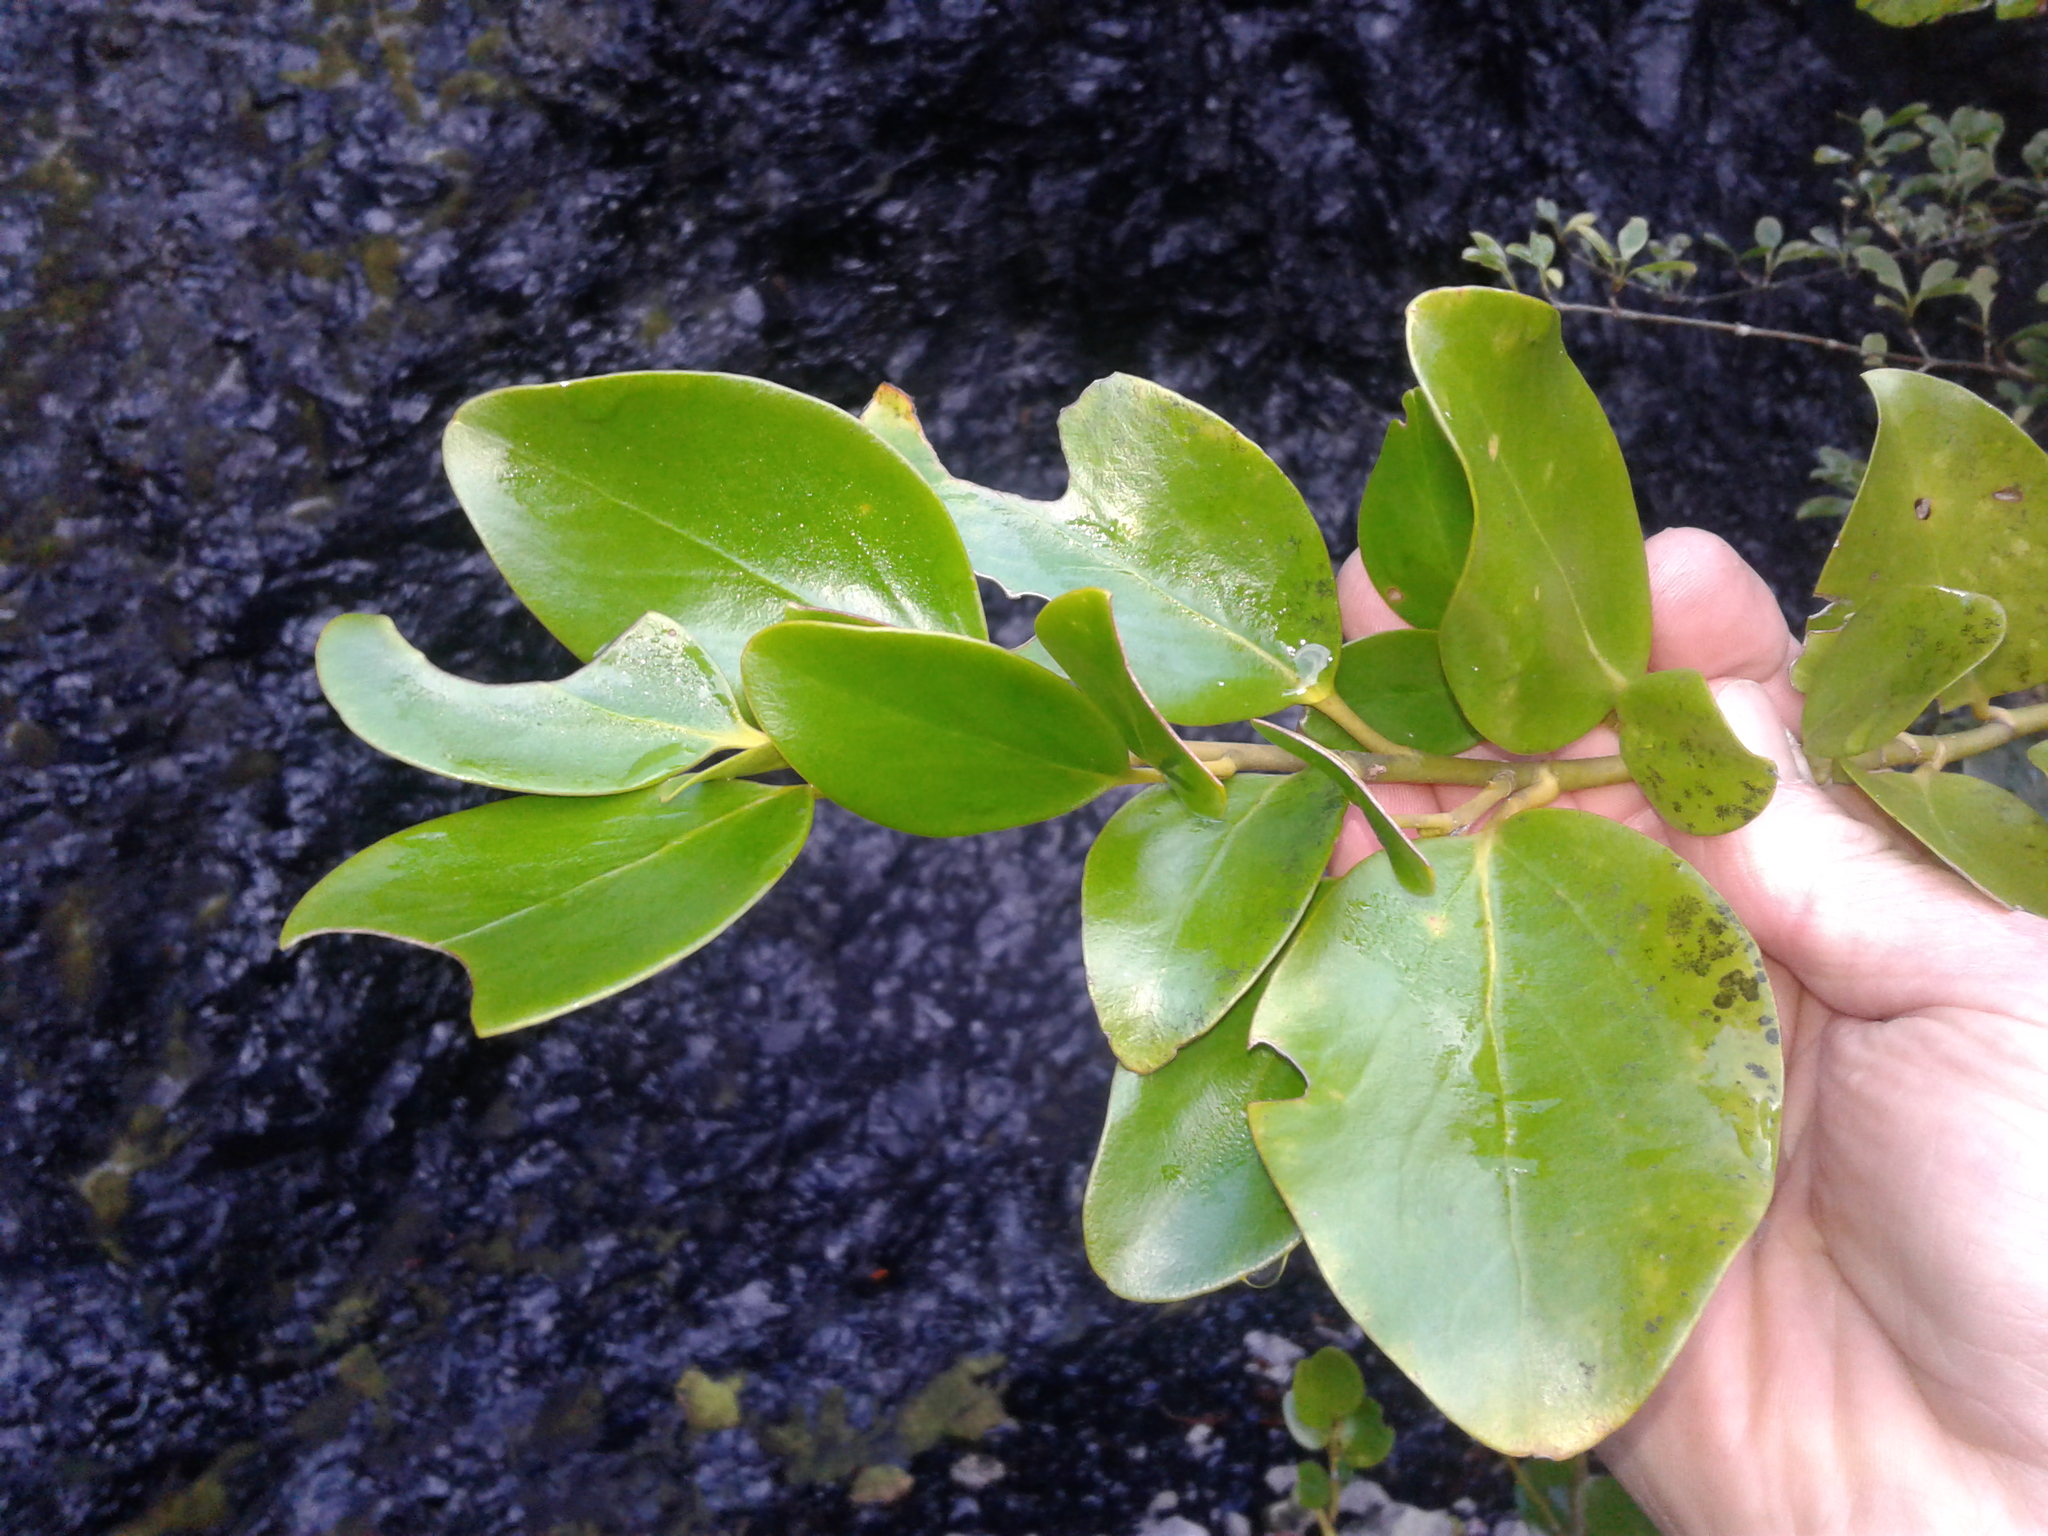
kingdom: Plantae
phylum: Tracheophyta
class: Magnoliopsida
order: Apiales
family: Griseliniaceae
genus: Griselinia
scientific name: Griselinia littoralis
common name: New zealand broadleaf
